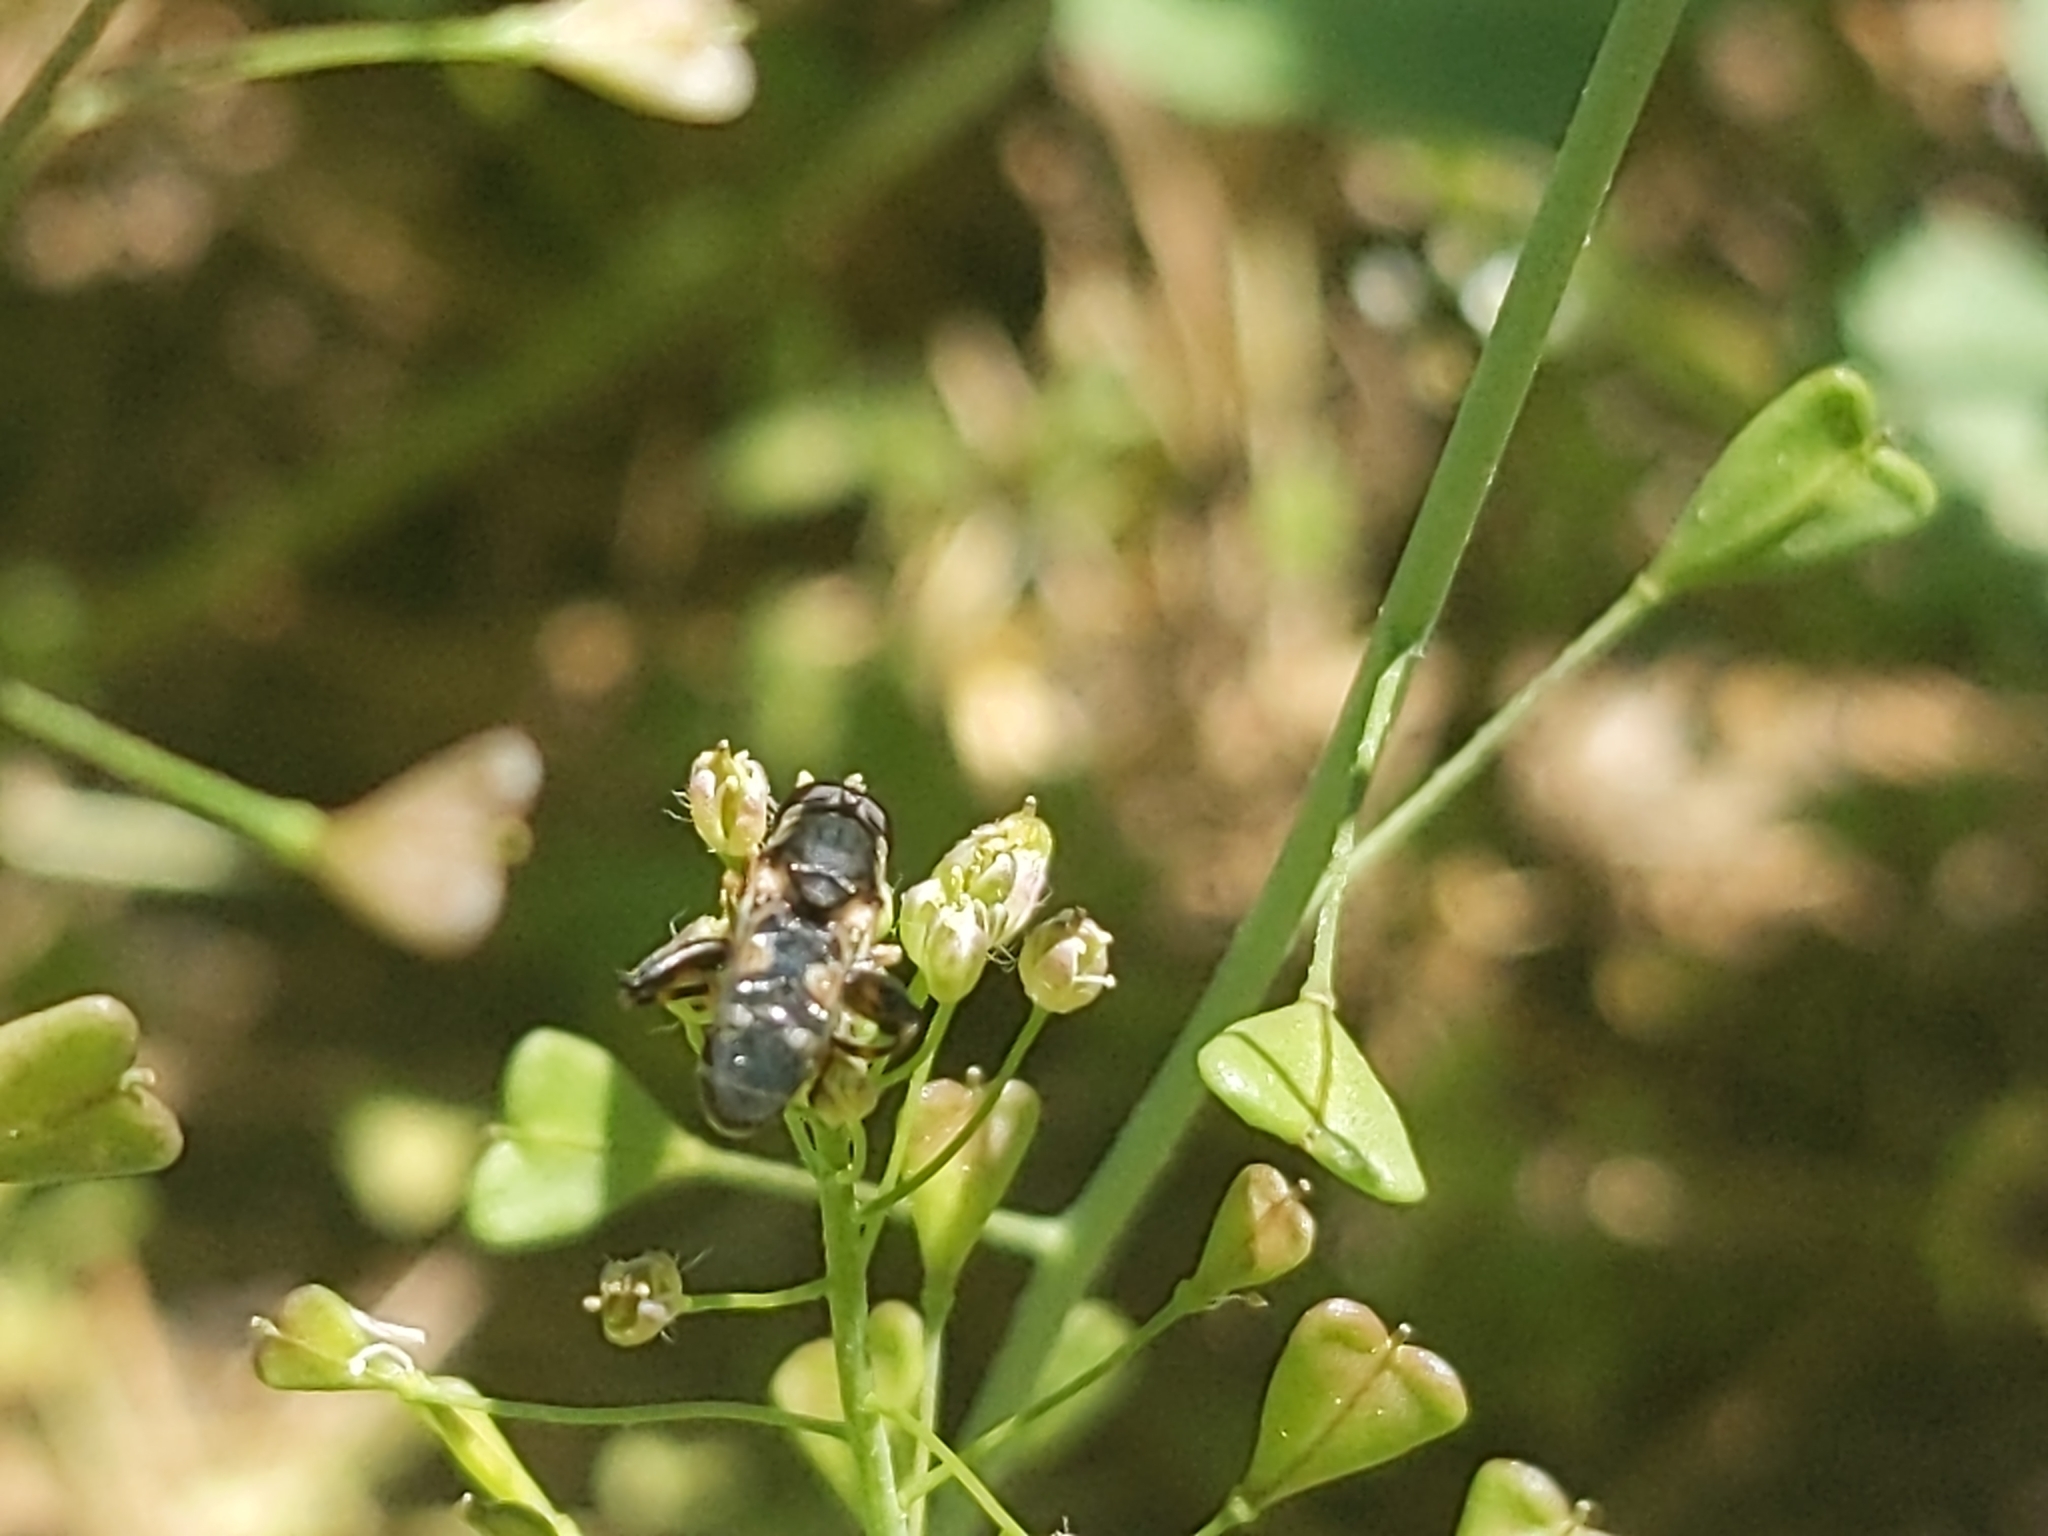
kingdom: Animalia
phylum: Arthropoda
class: Insecta
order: Diptera
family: Syrphidae
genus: Syritta
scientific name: Syritta pipiens
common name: Hover fly
